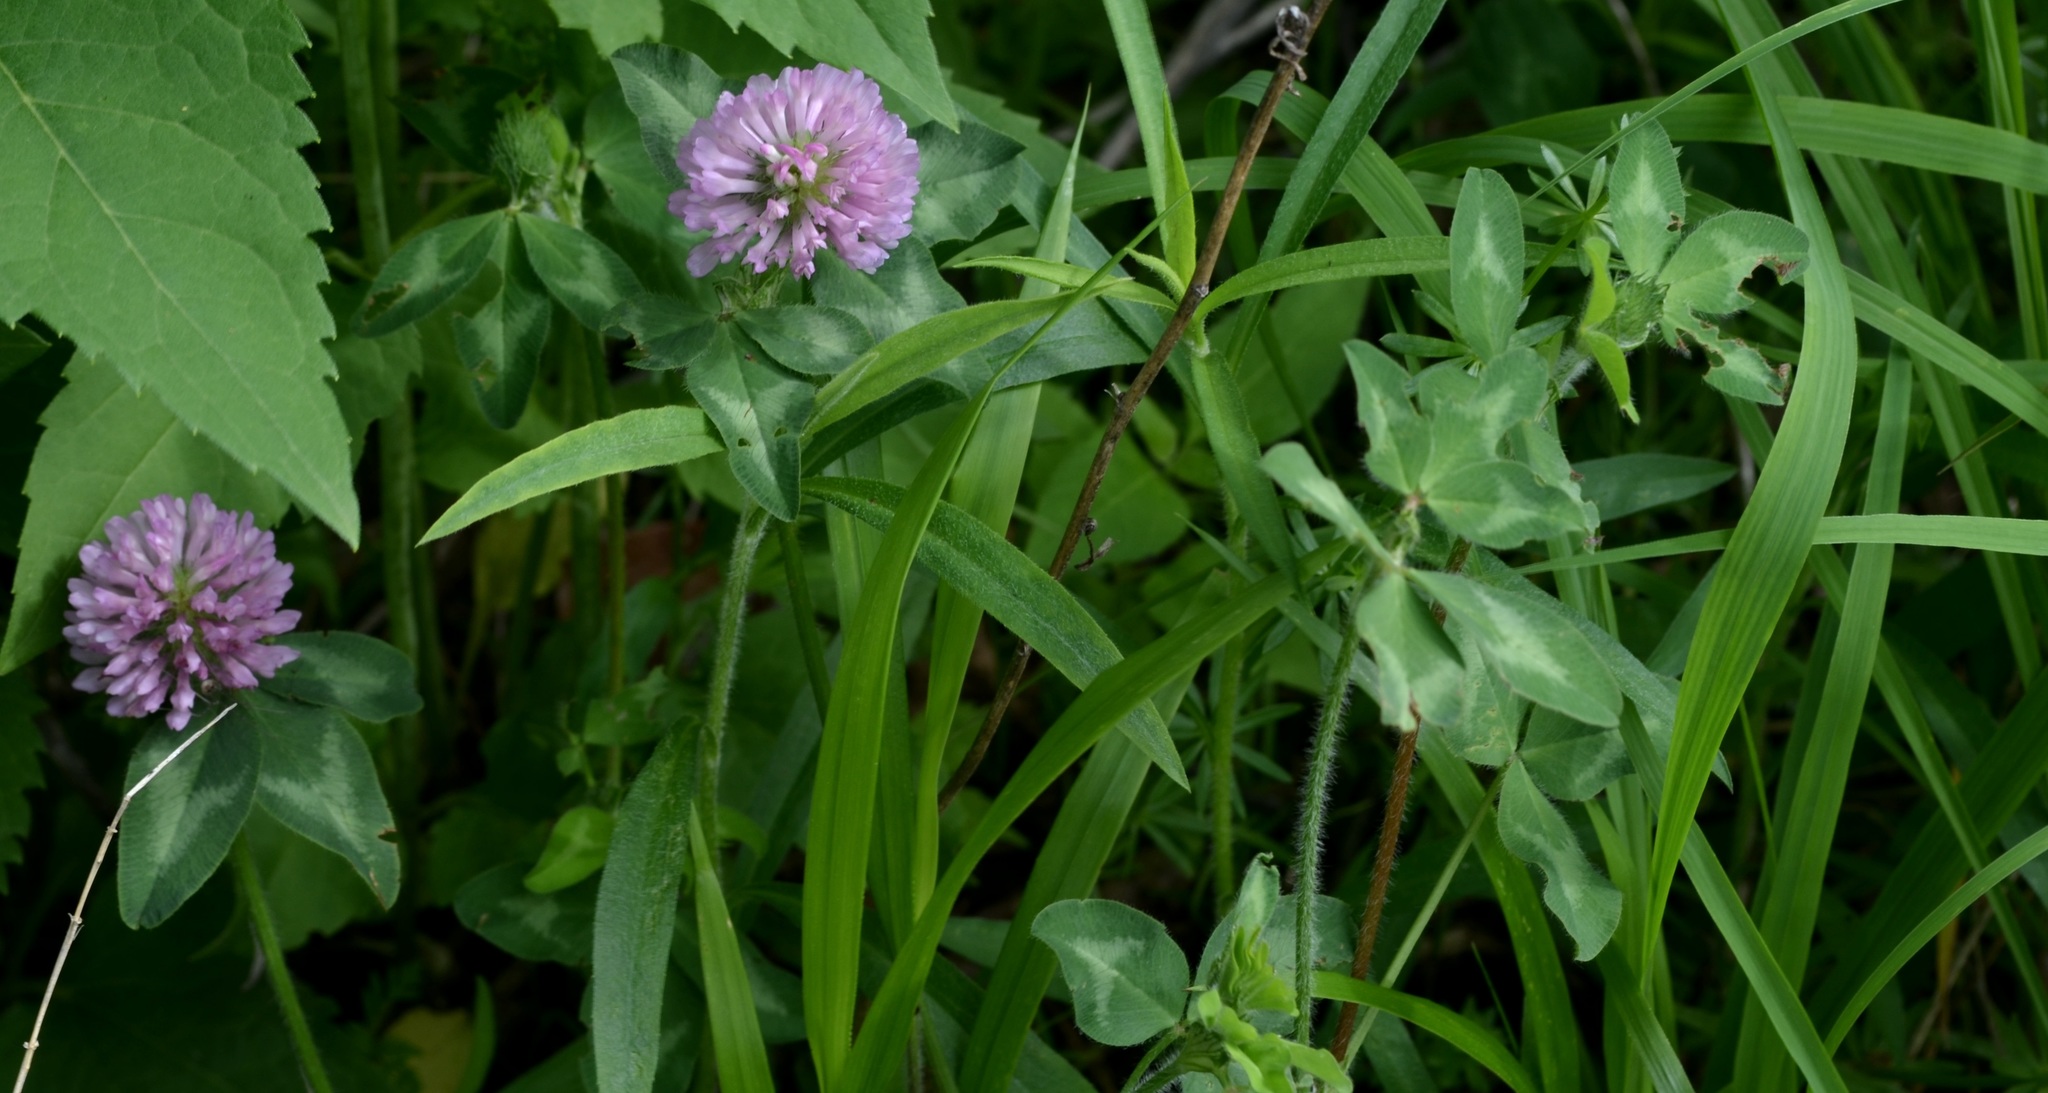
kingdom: Plantae
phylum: Tracheophyta
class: Magnoliopsida
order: Fabales
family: Fabaceae
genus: Trifolium
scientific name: Trifolium pratense
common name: Red clover
